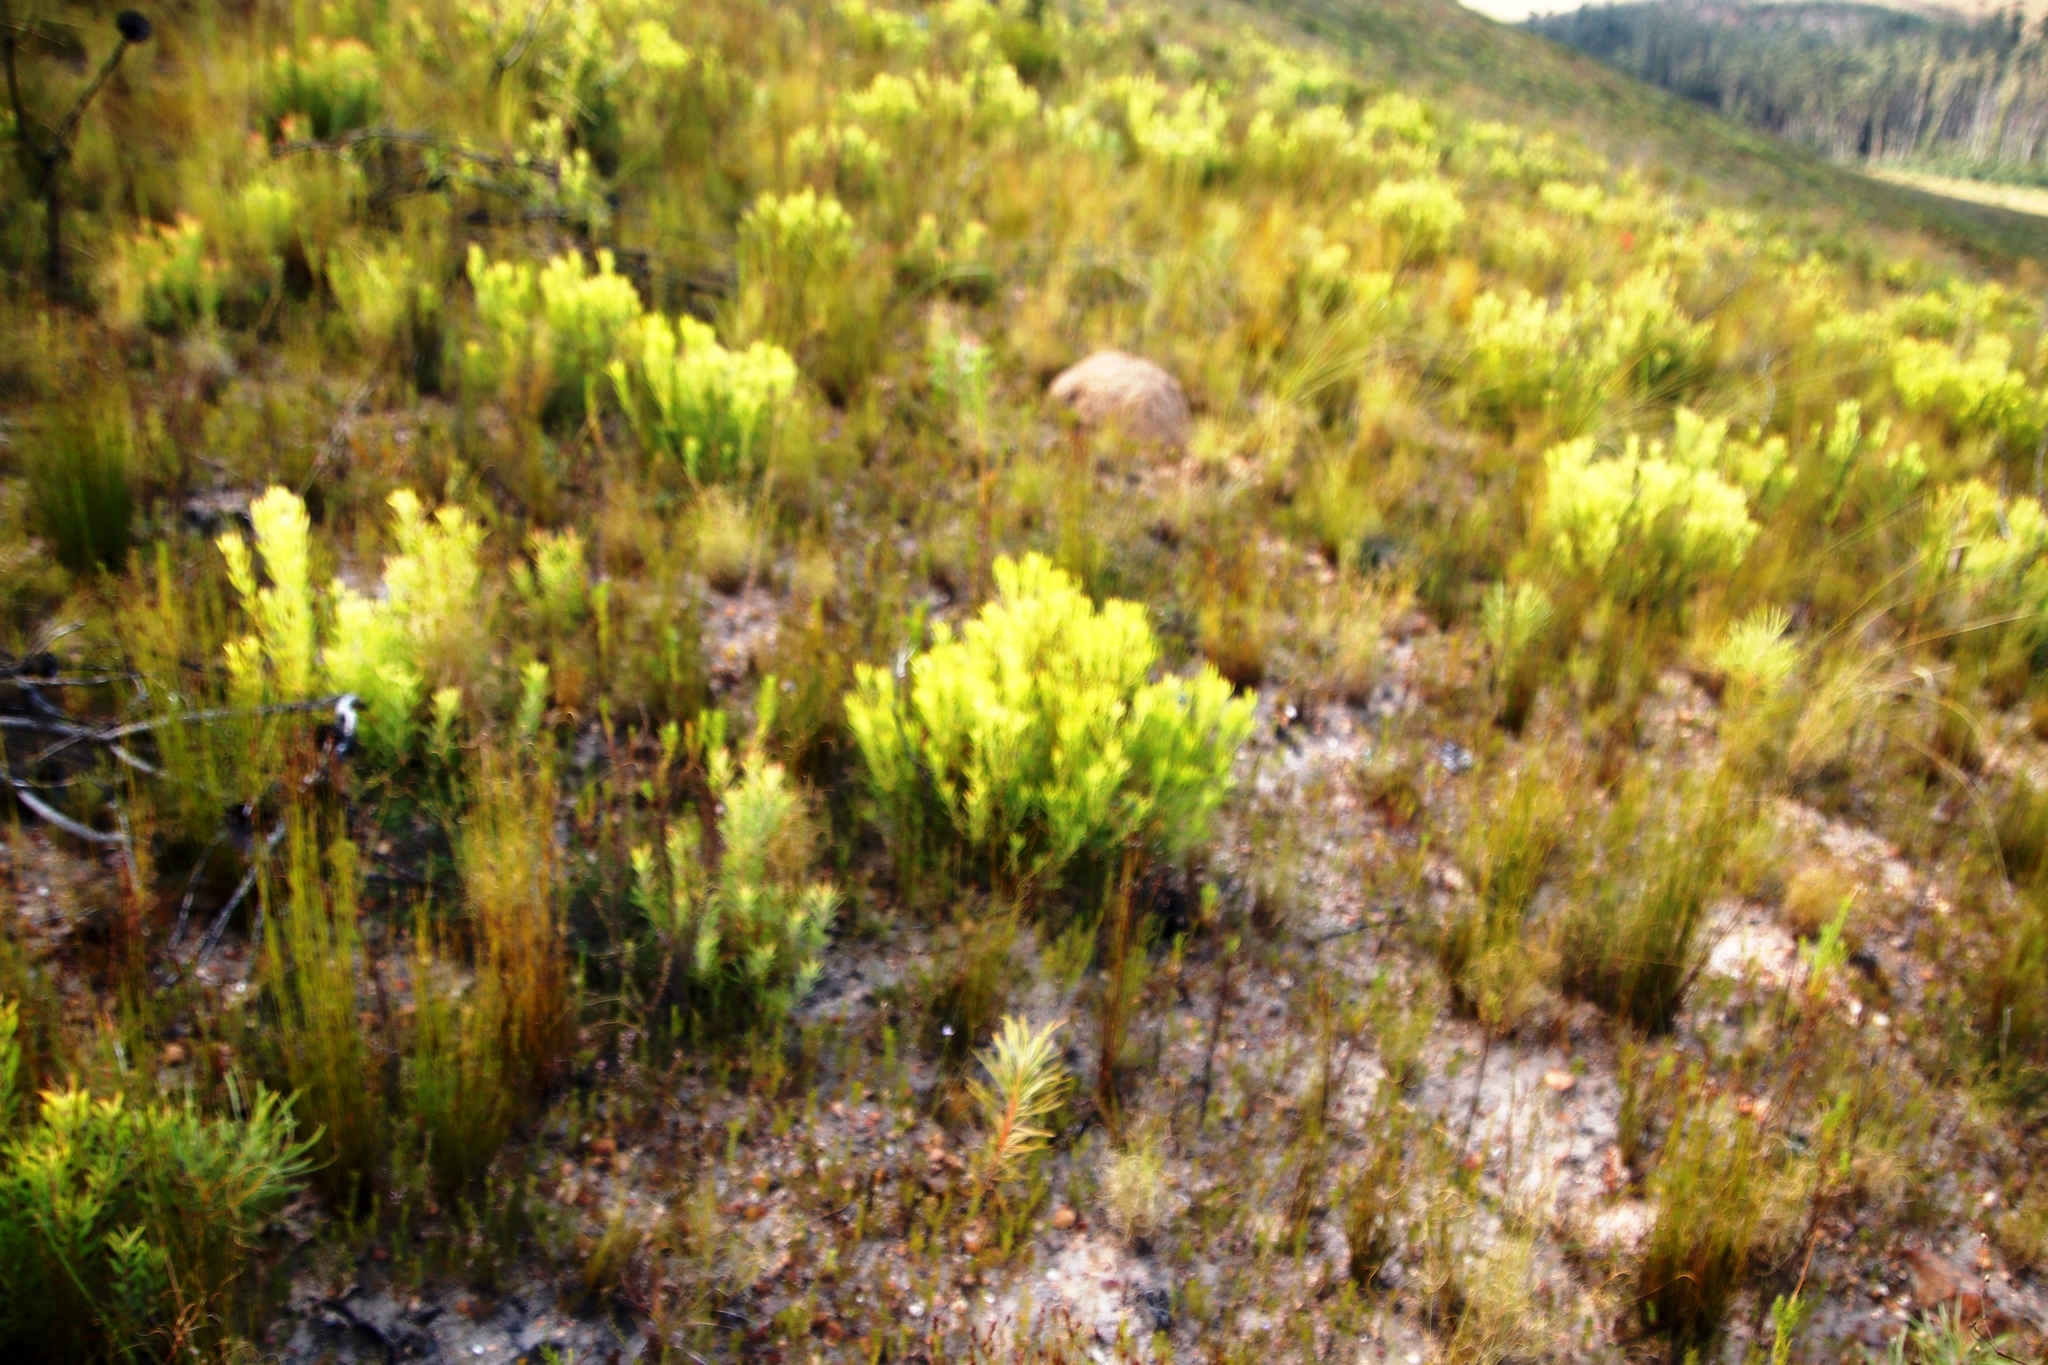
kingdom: Plantae
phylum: Tracheophyta
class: Magnoliopsida
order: Proteales
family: Proteaceae
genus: Leucadendron
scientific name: Leucadendron salignum
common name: Common sunshine conebush
